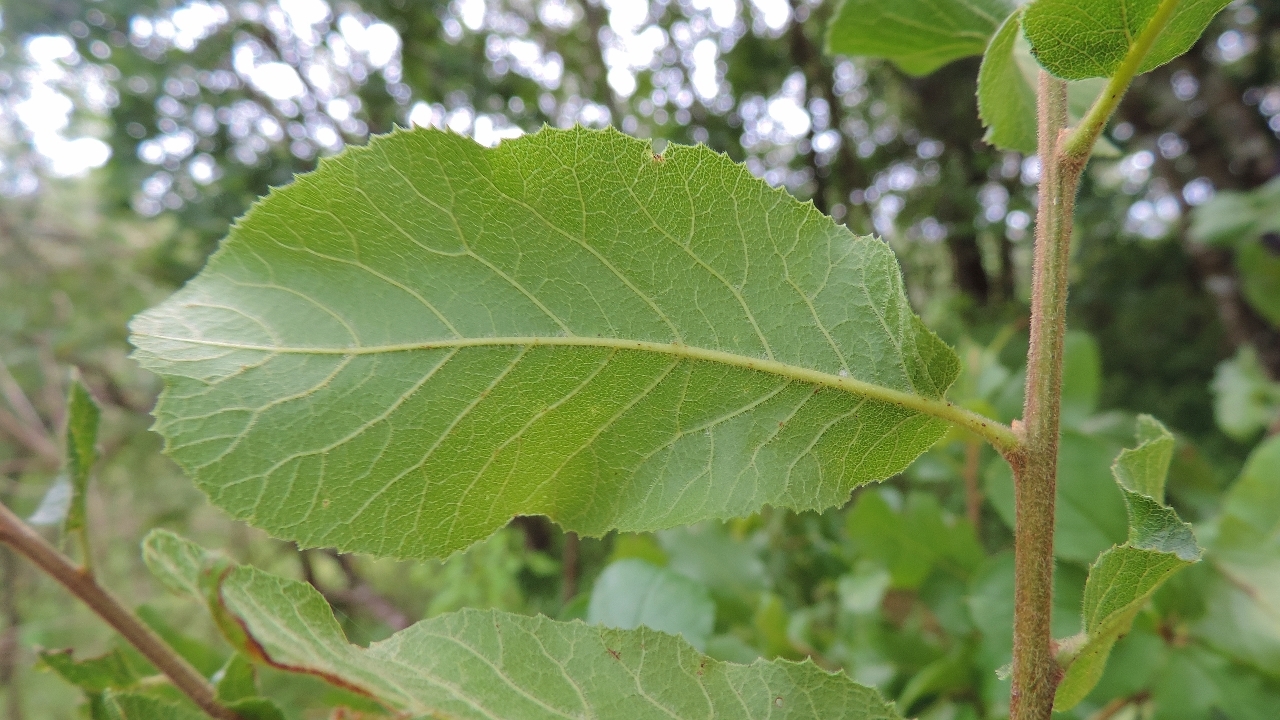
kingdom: Plantae
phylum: Tracheophyta
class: Magnoliopsida
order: Sapindales
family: Sapindaceae
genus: Pappea
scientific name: Pappea capensis
